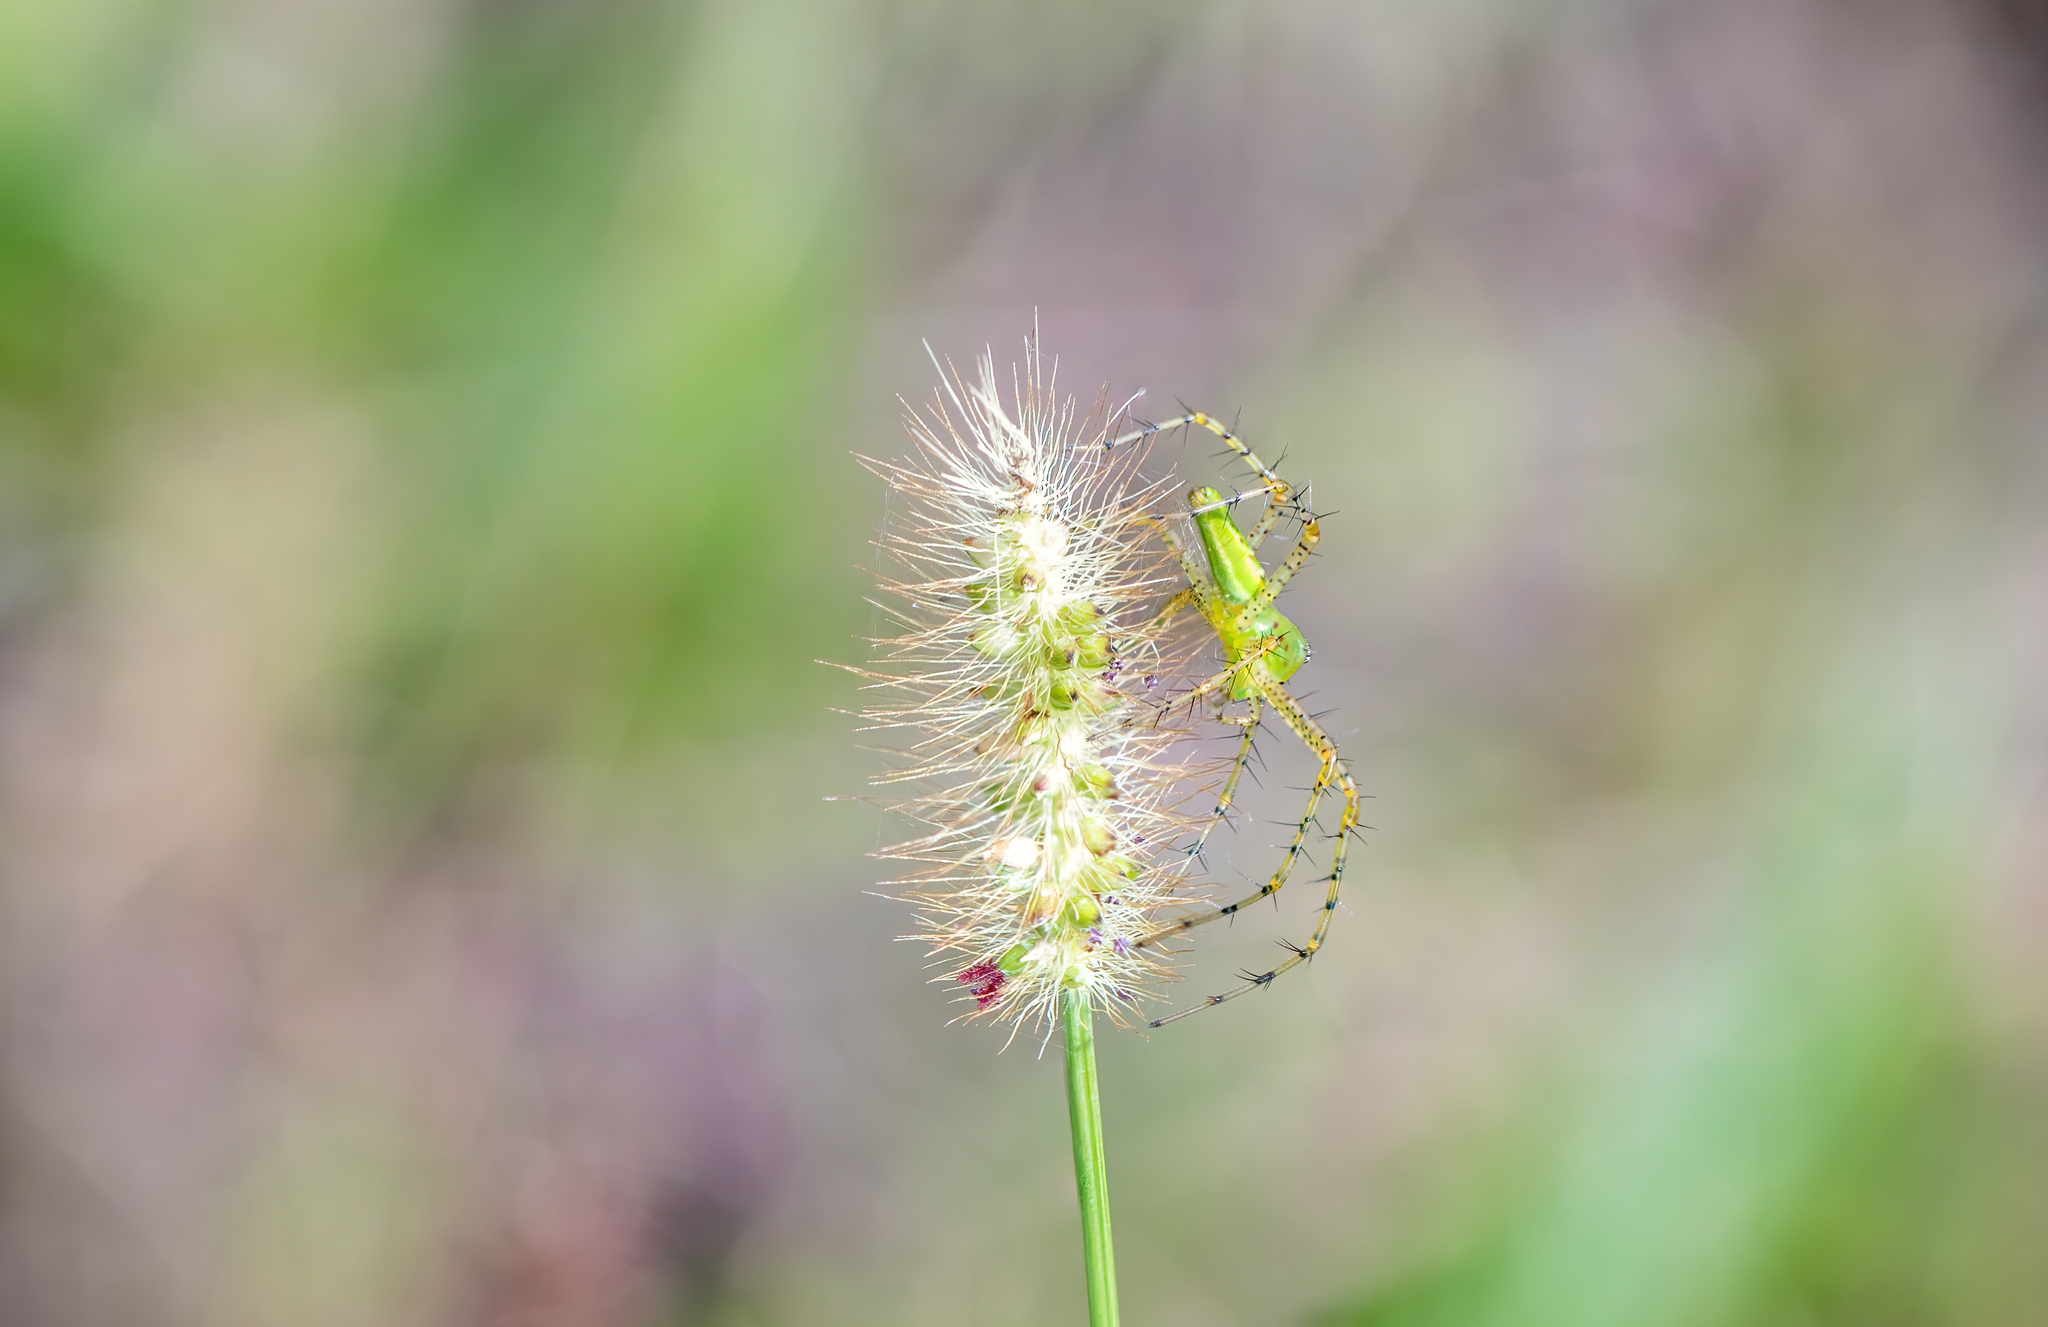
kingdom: Animalia
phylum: Arthropoda
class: Arachnida
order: Araneae
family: Oxyopidae
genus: Peucetia
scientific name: Peucetia viridans
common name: Lynx spiders
